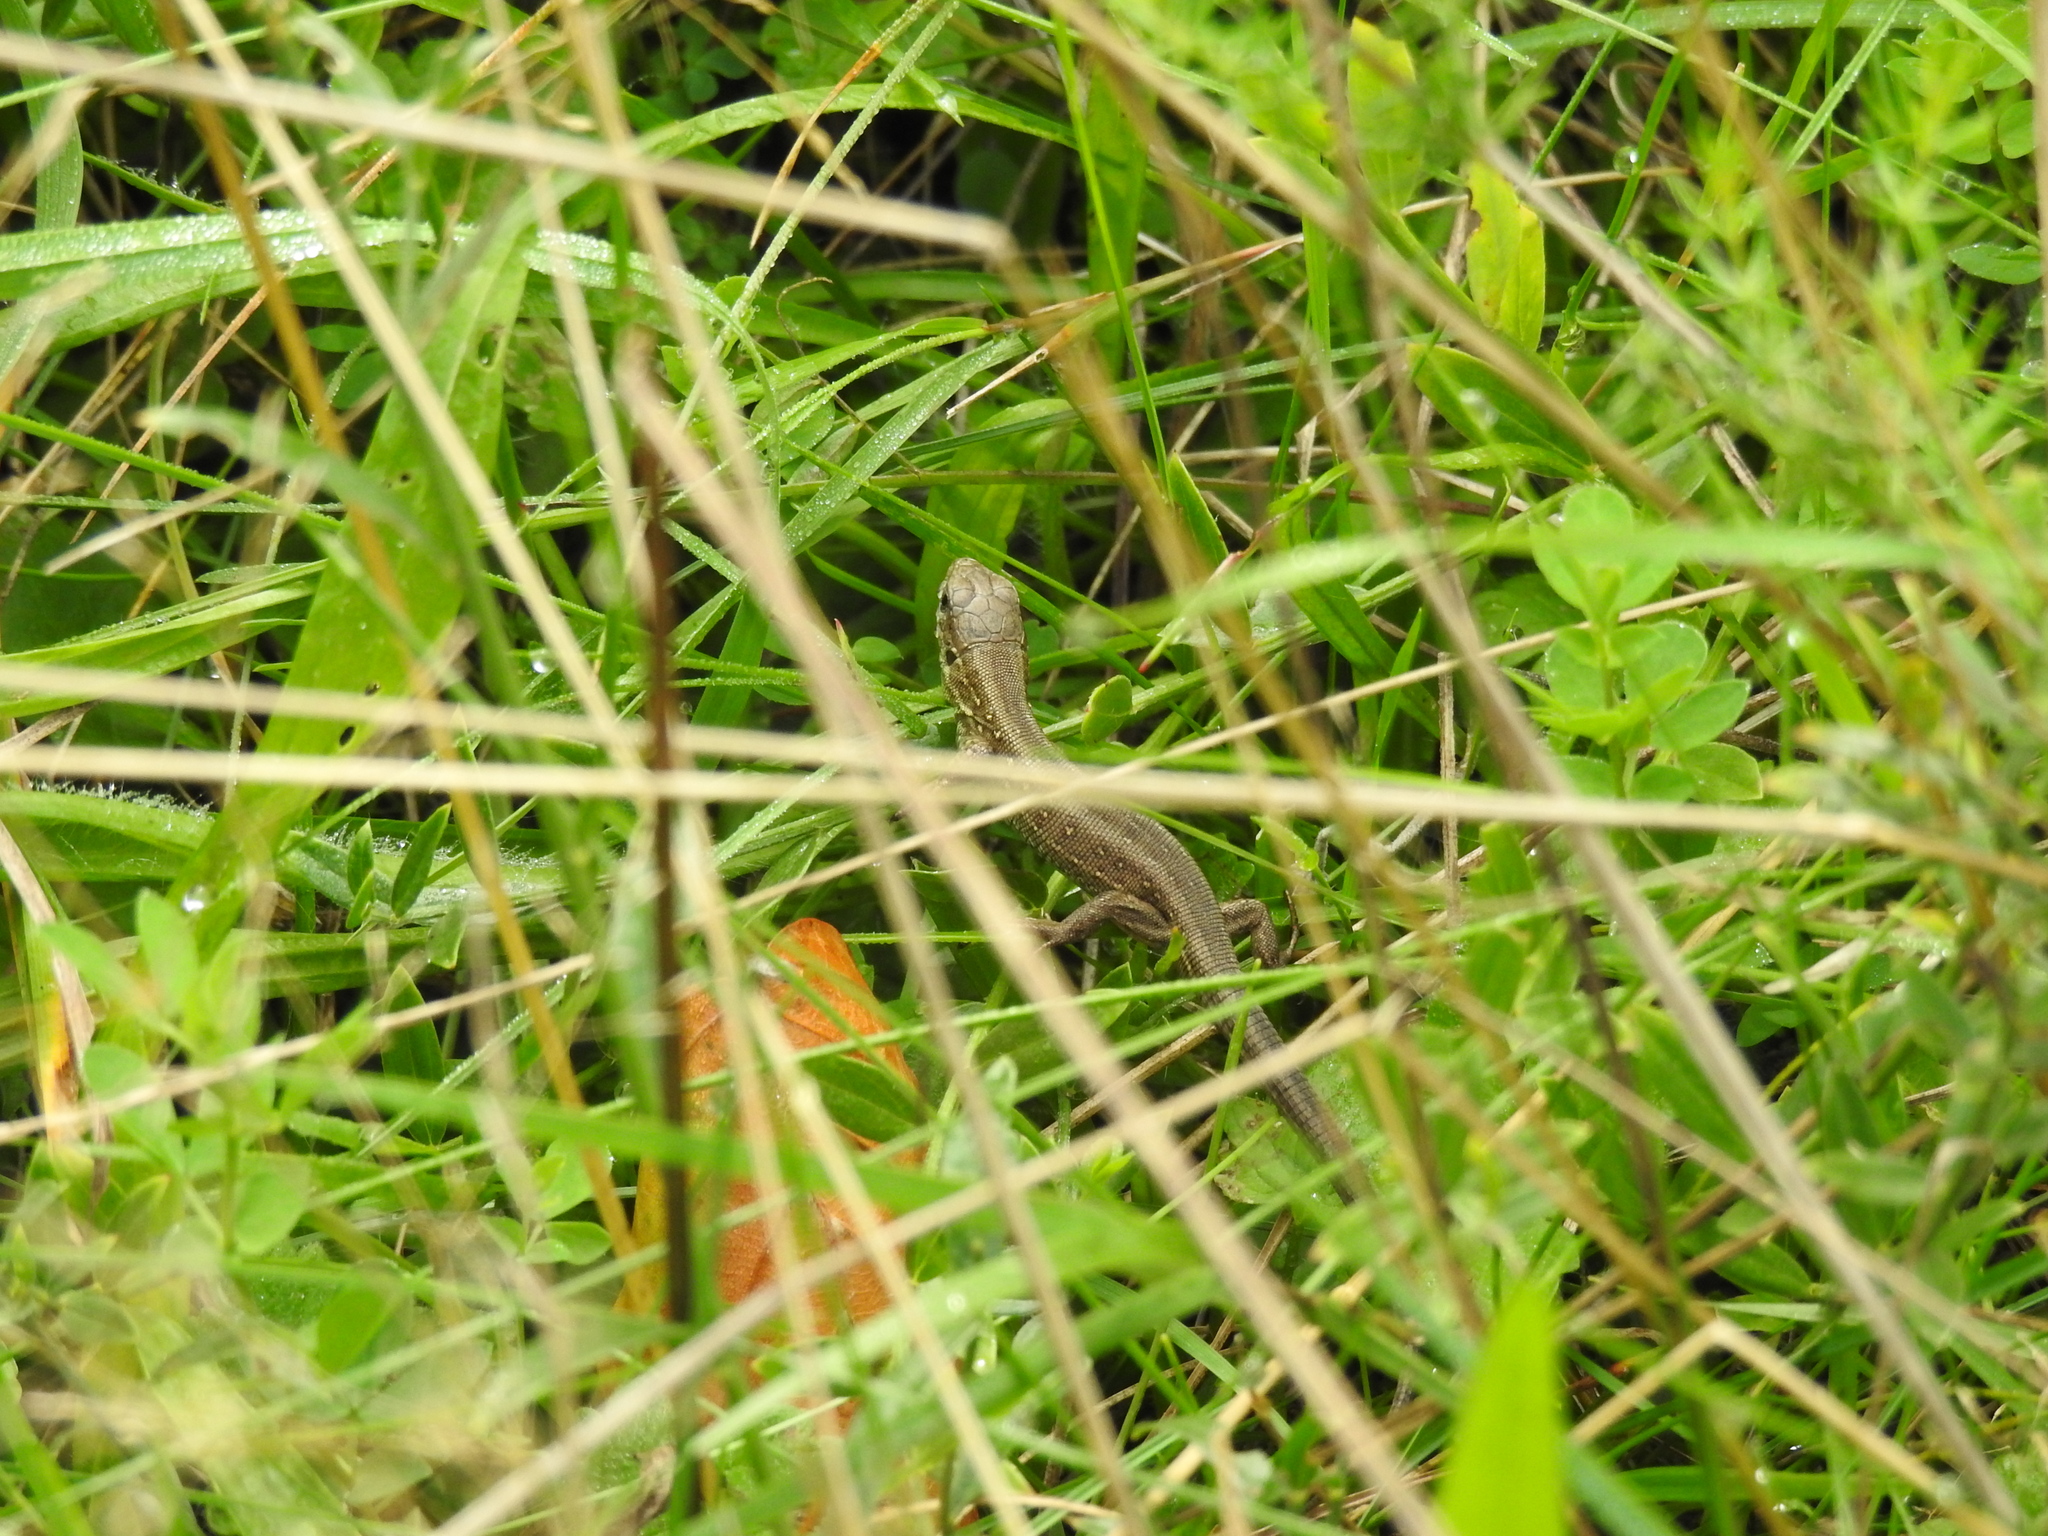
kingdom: Animalia
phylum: Chordata
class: Squamata
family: Lacertidae
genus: Lacerta
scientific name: Lacerta agilis
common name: Sand lizard
